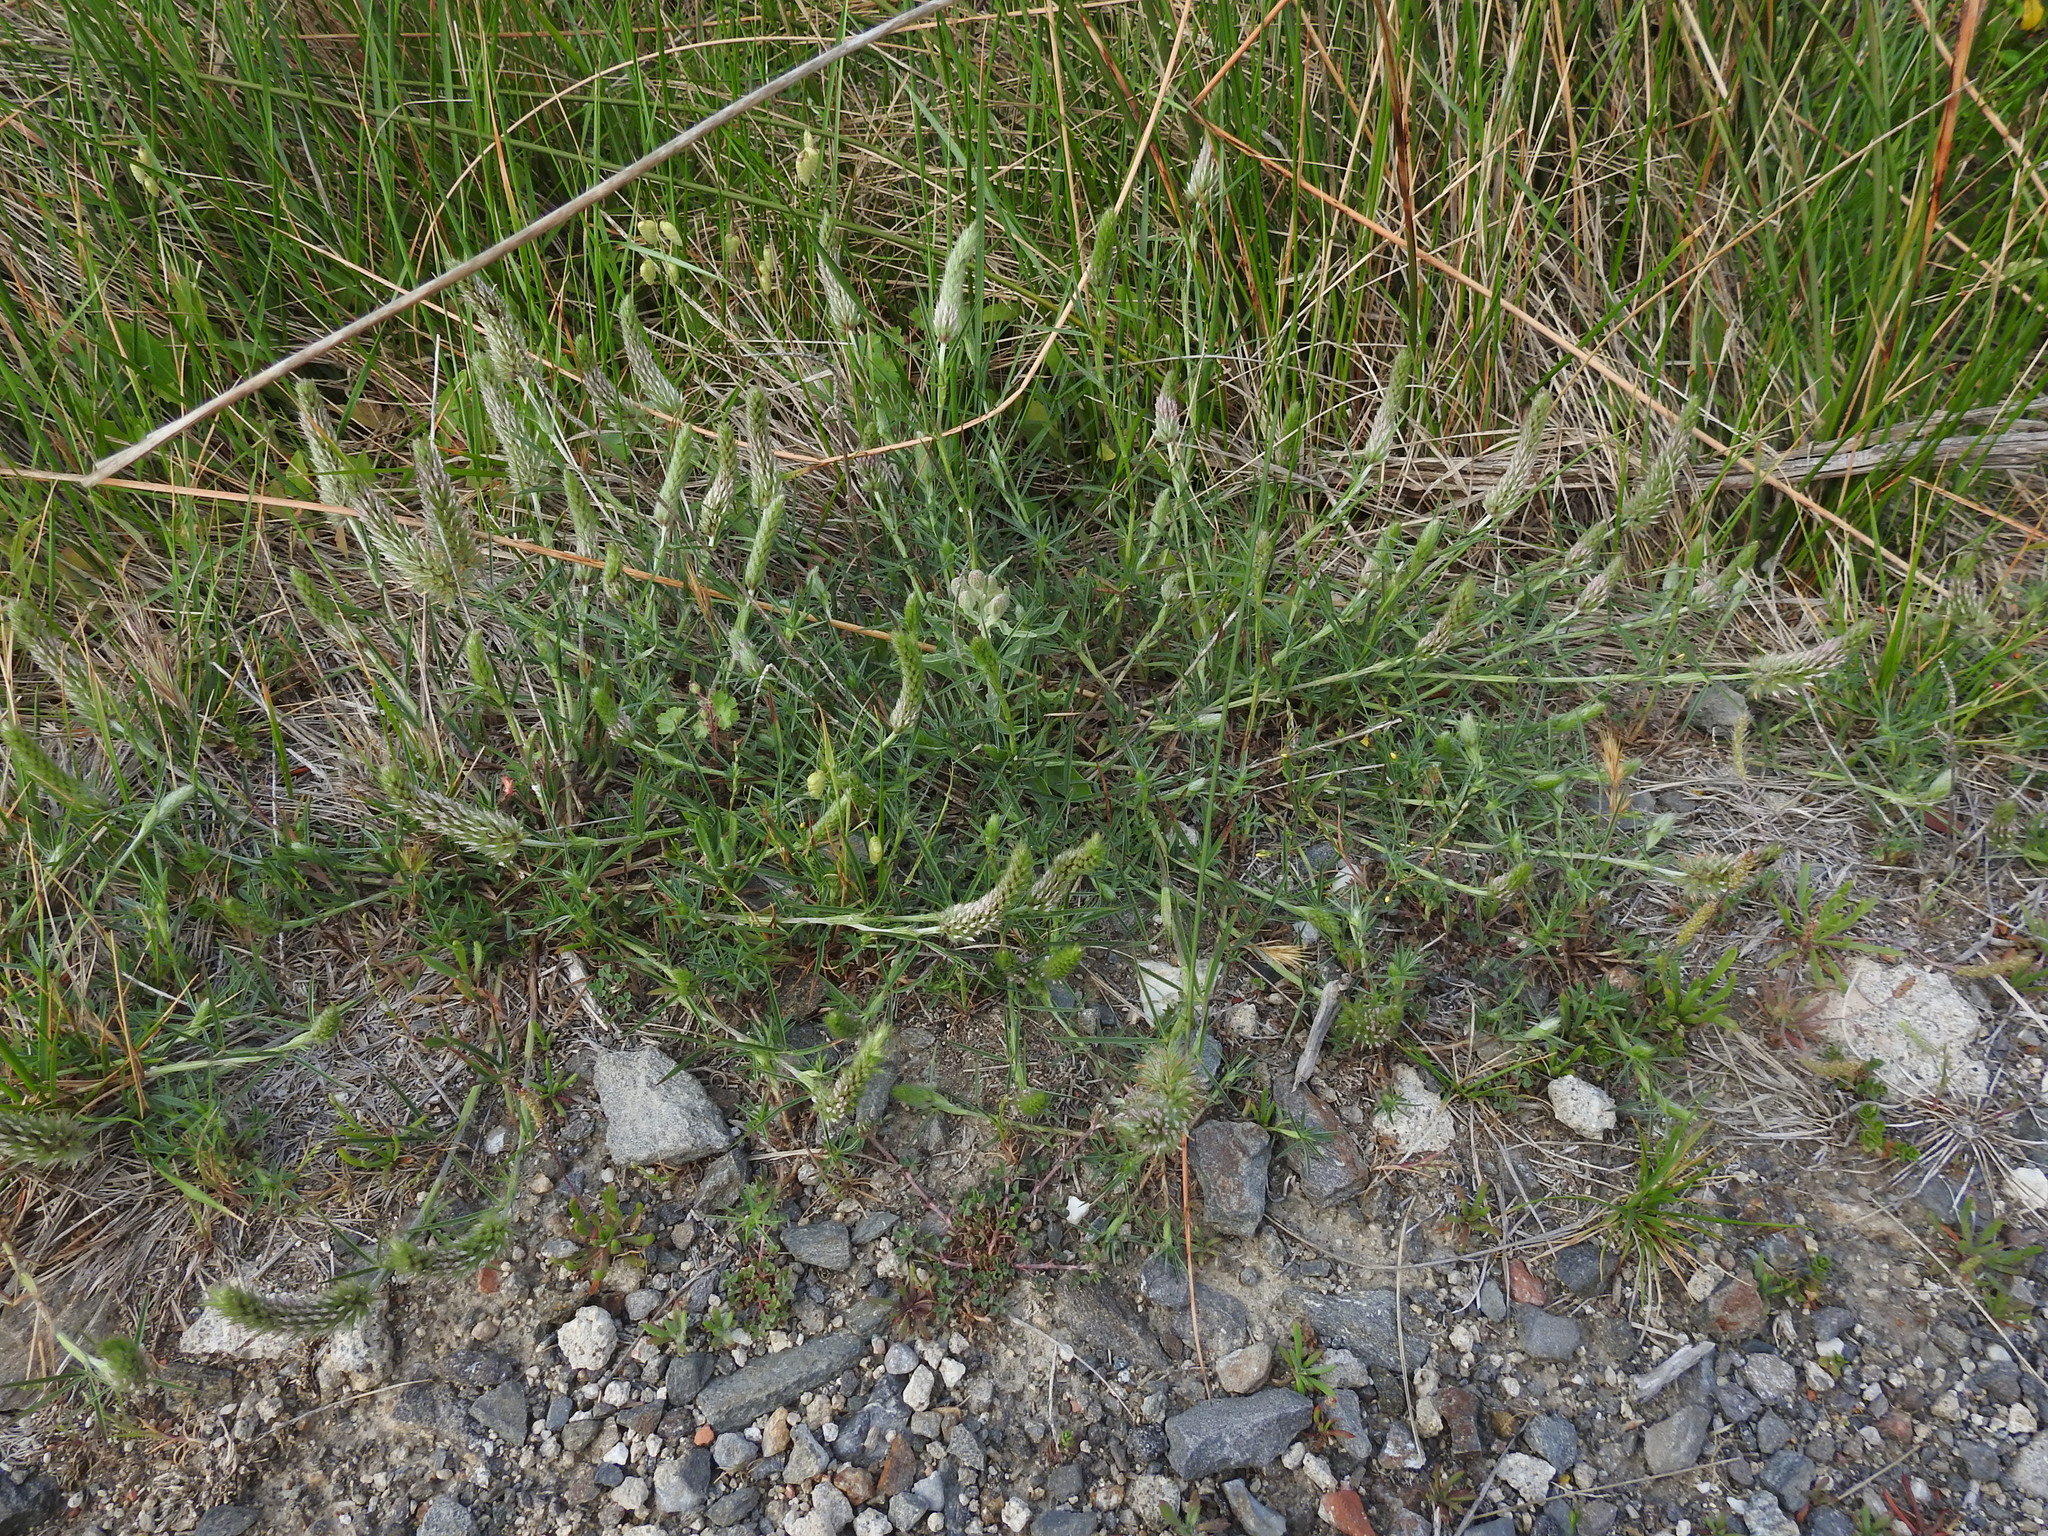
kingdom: Plantae
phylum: Tracheophyta
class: Magnoliopsida
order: Fabales
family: Fabaceae
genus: Trifolium
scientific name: Trifolium angustifolium
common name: Narrow clover
